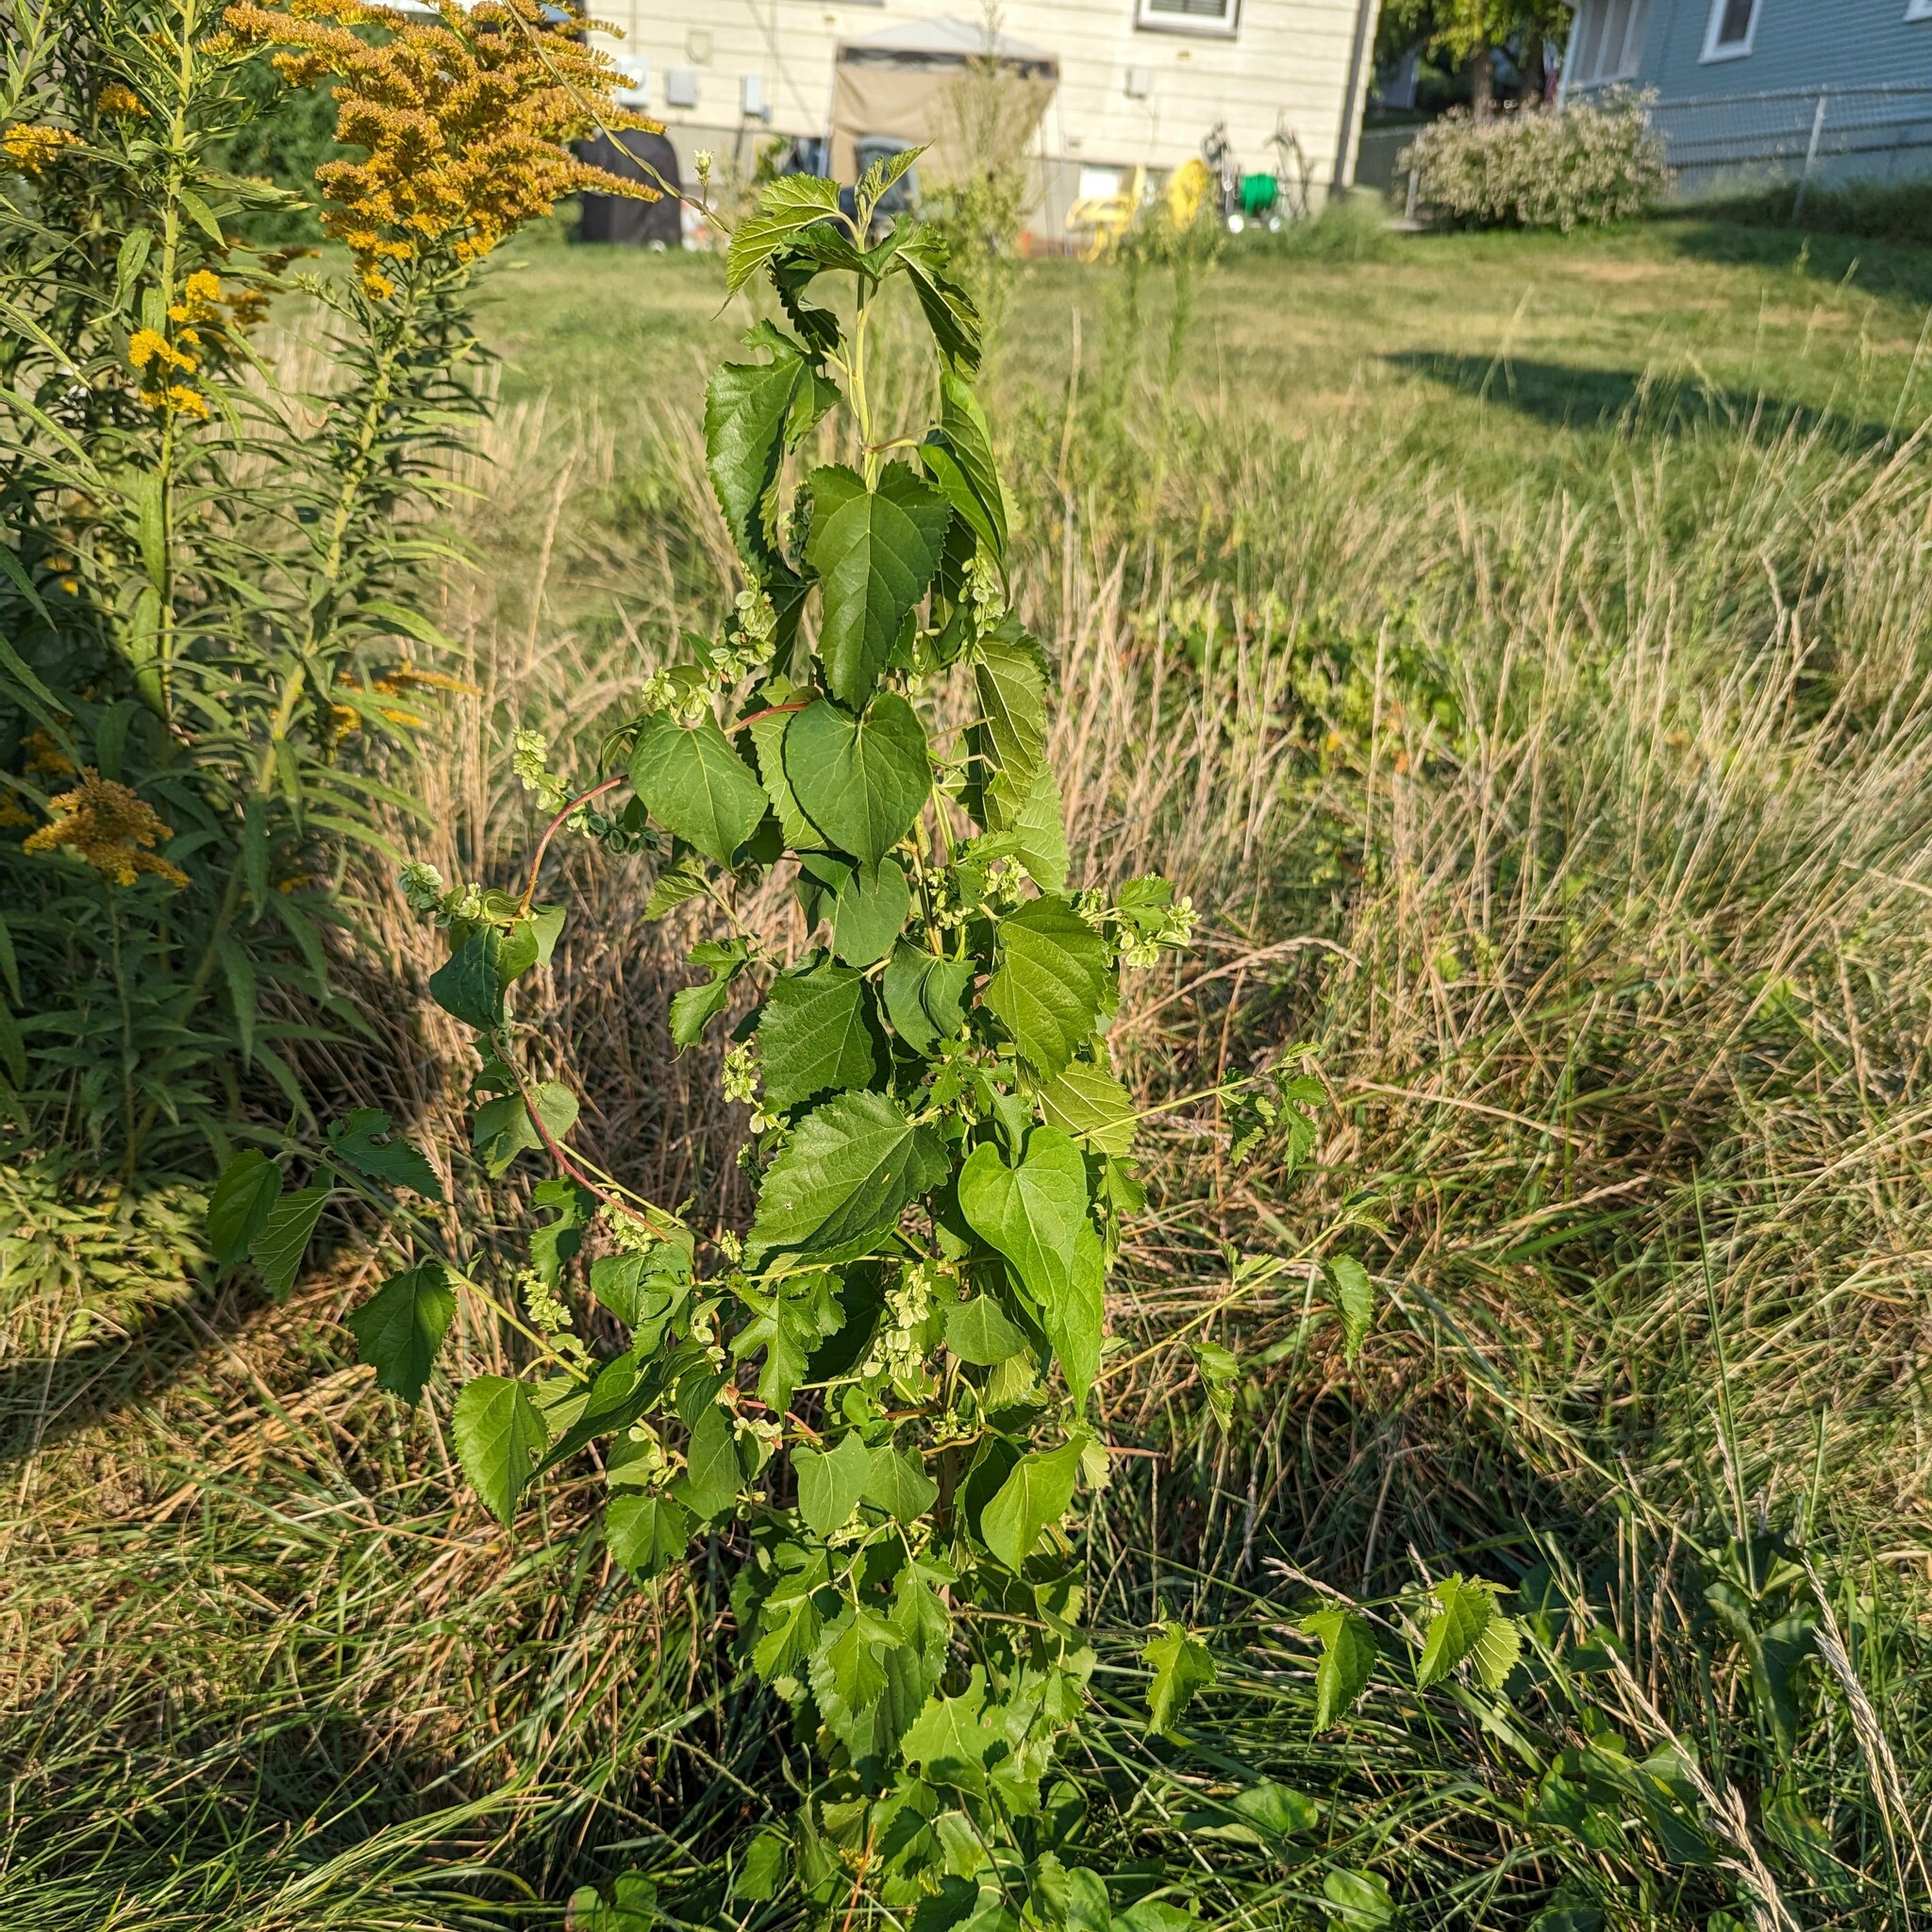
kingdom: Plantae
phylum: Tracheophyta
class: Magnoliopsida
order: Caryophyllales
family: Polygonaceae
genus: Fallopia
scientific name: Fallopia scandens
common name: Climbing false buckwheat
